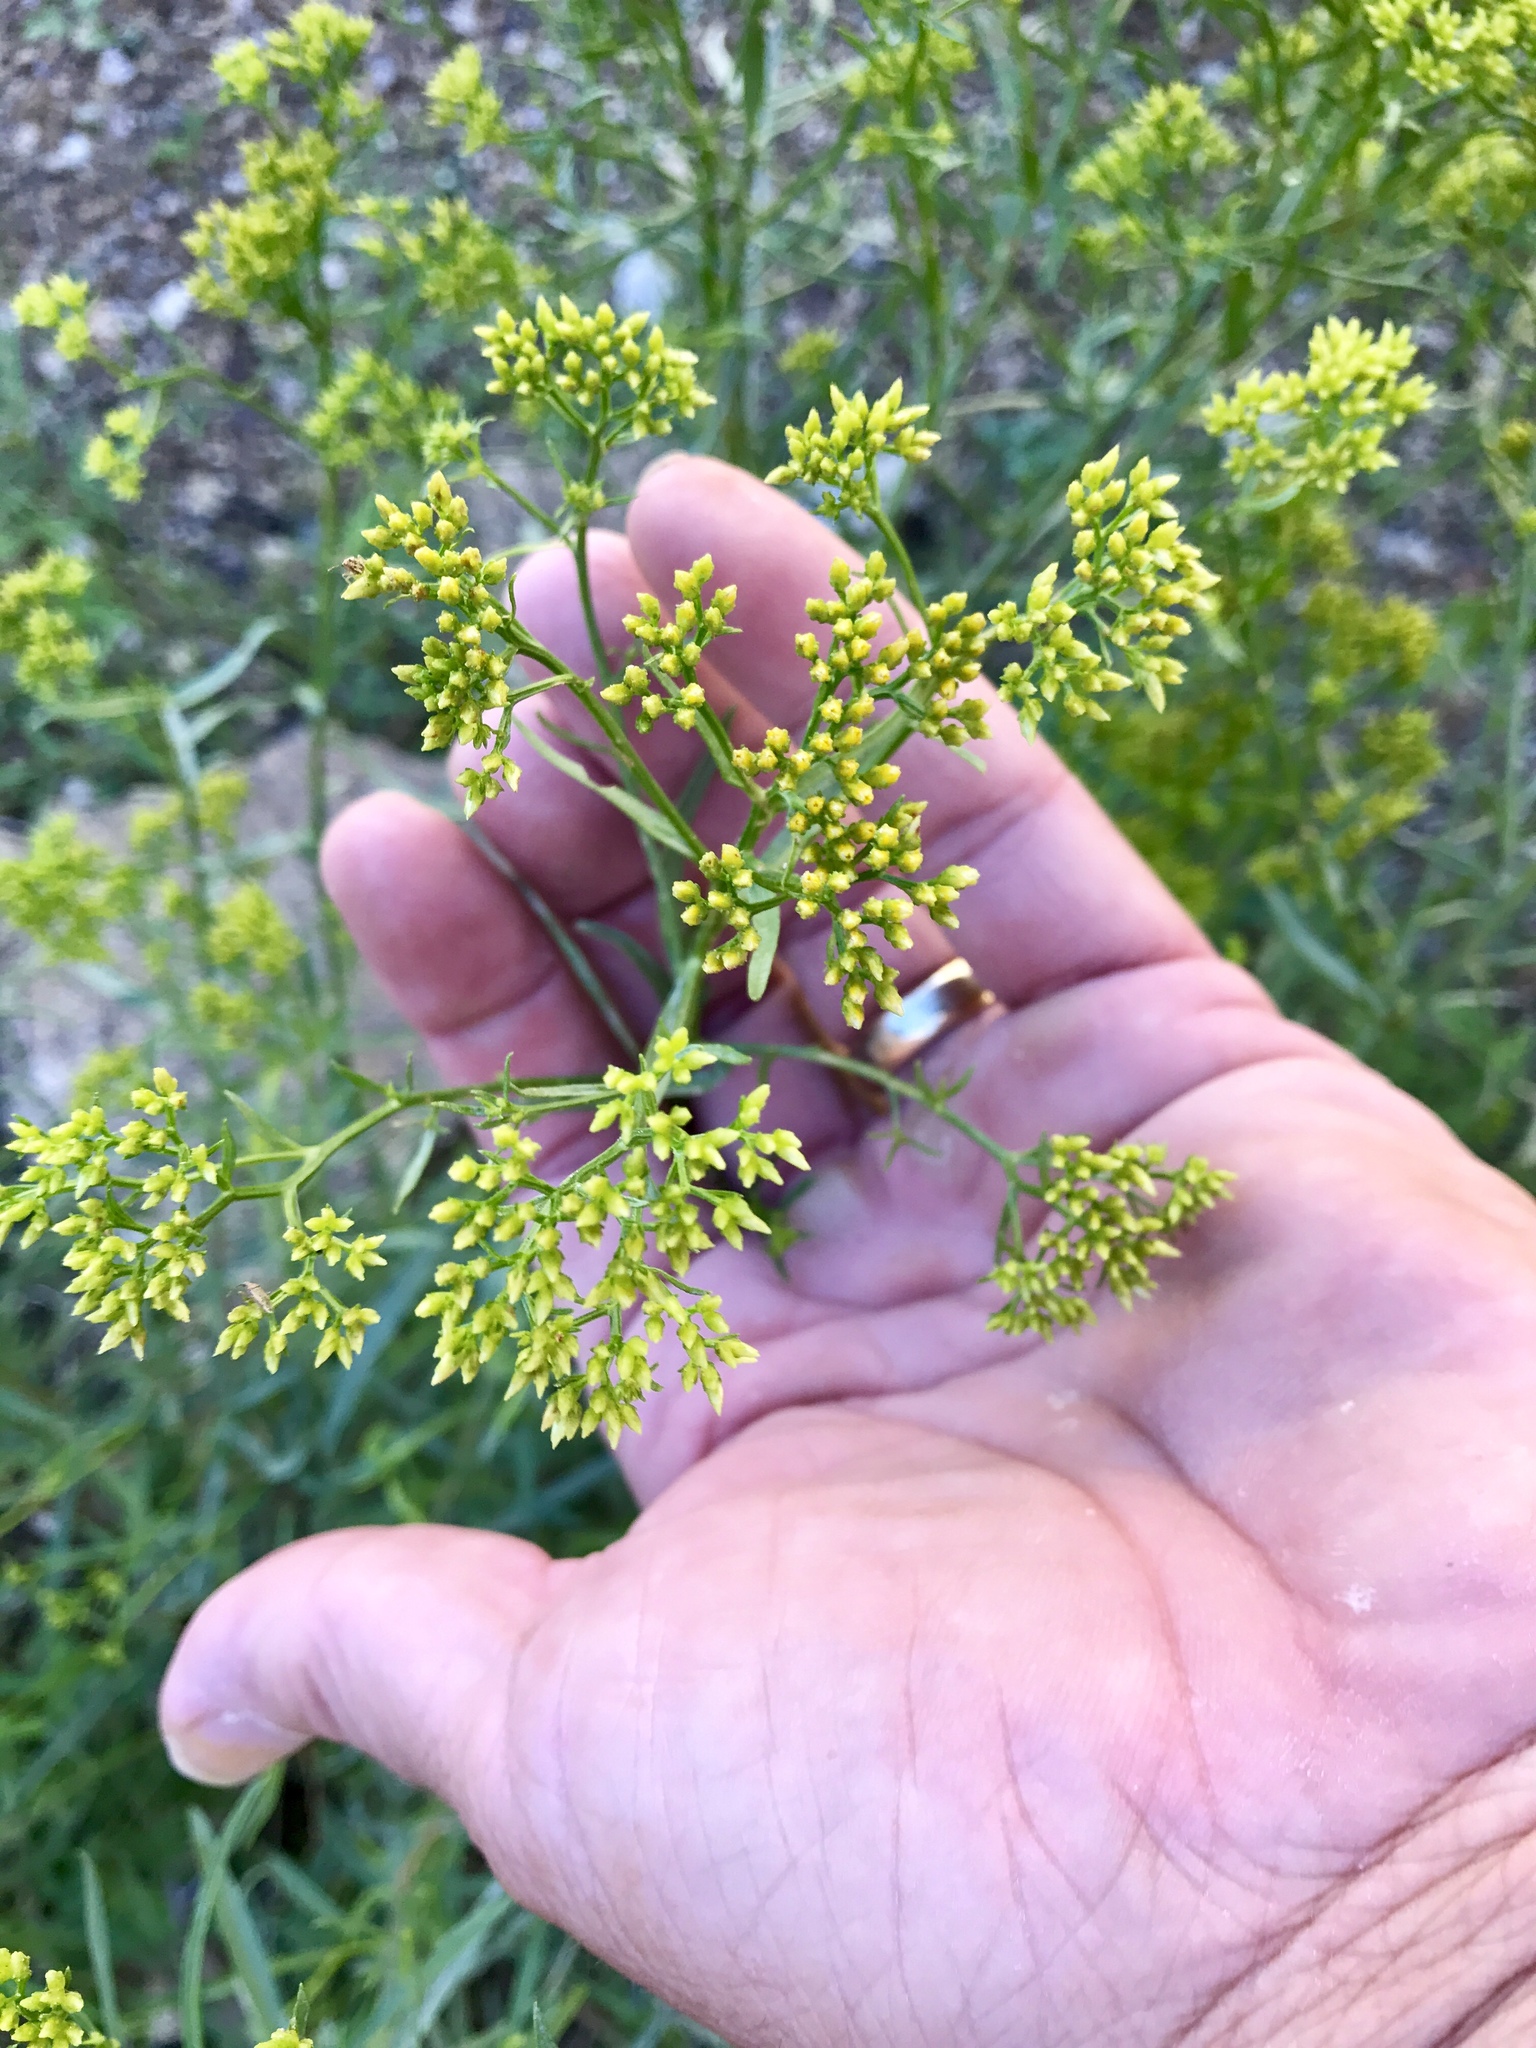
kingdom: Plantae
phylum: Tracheophyta
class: Magnoliopsida
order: Apiales
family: Apiaceae
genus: Foeniculum
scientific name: Foeniculum vulgare
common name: Fennel
